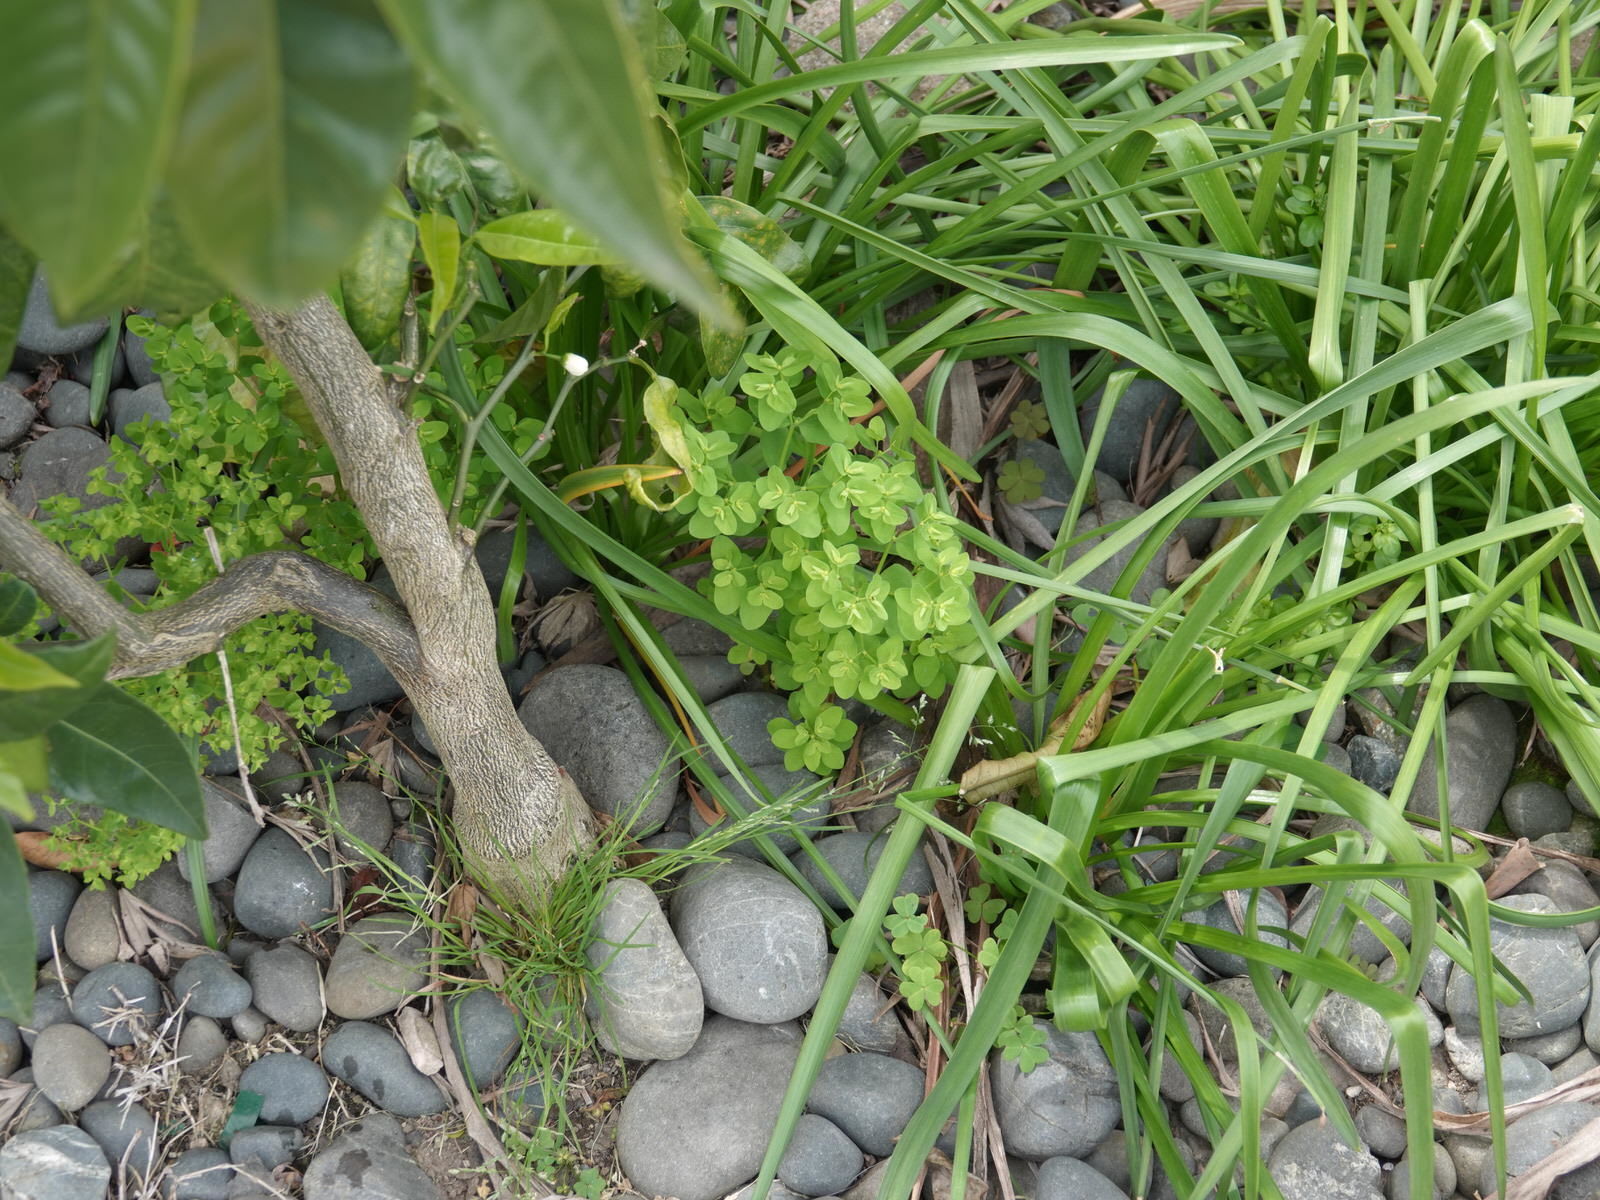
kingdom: Plantae
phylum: Tracheophyta
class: Magnoliopsida
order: Malpighiales
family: Euphorbiaceae
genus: Euphorbia
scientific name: Euphorbia peplus
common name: Petty spurge
